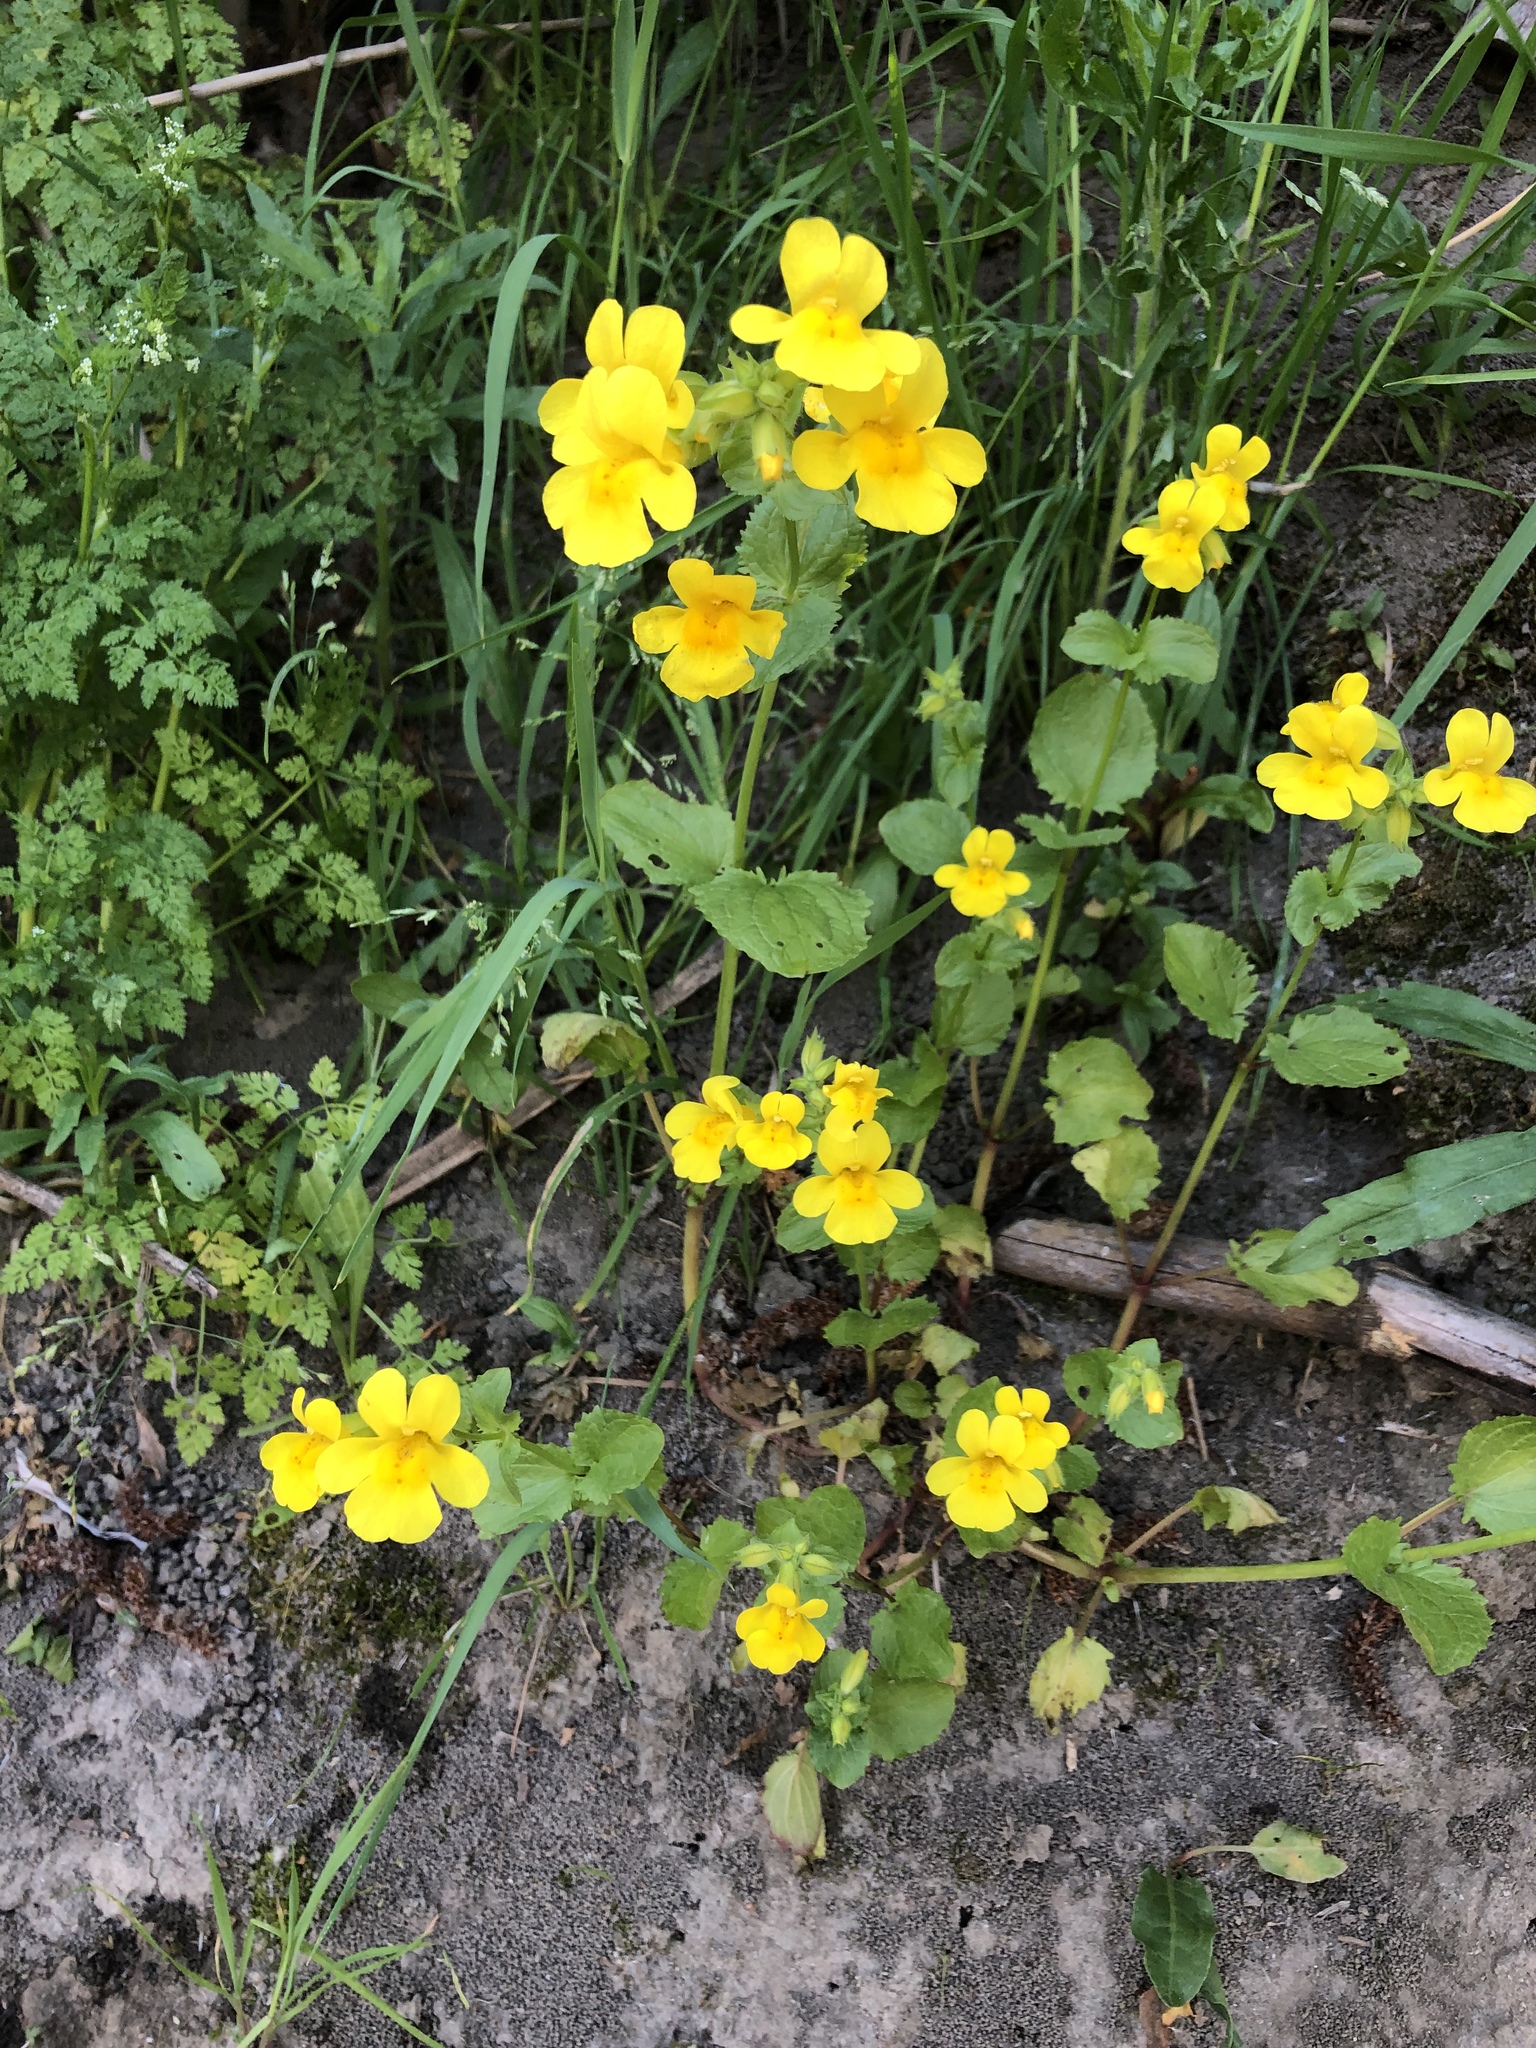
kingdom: Plantae
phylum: Tracheophyta
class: Magnoliopsida
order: Lamiales
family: Phrymaceae
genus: Erythranthe
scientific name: Erythranthe guttata
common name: Monkeyflower
